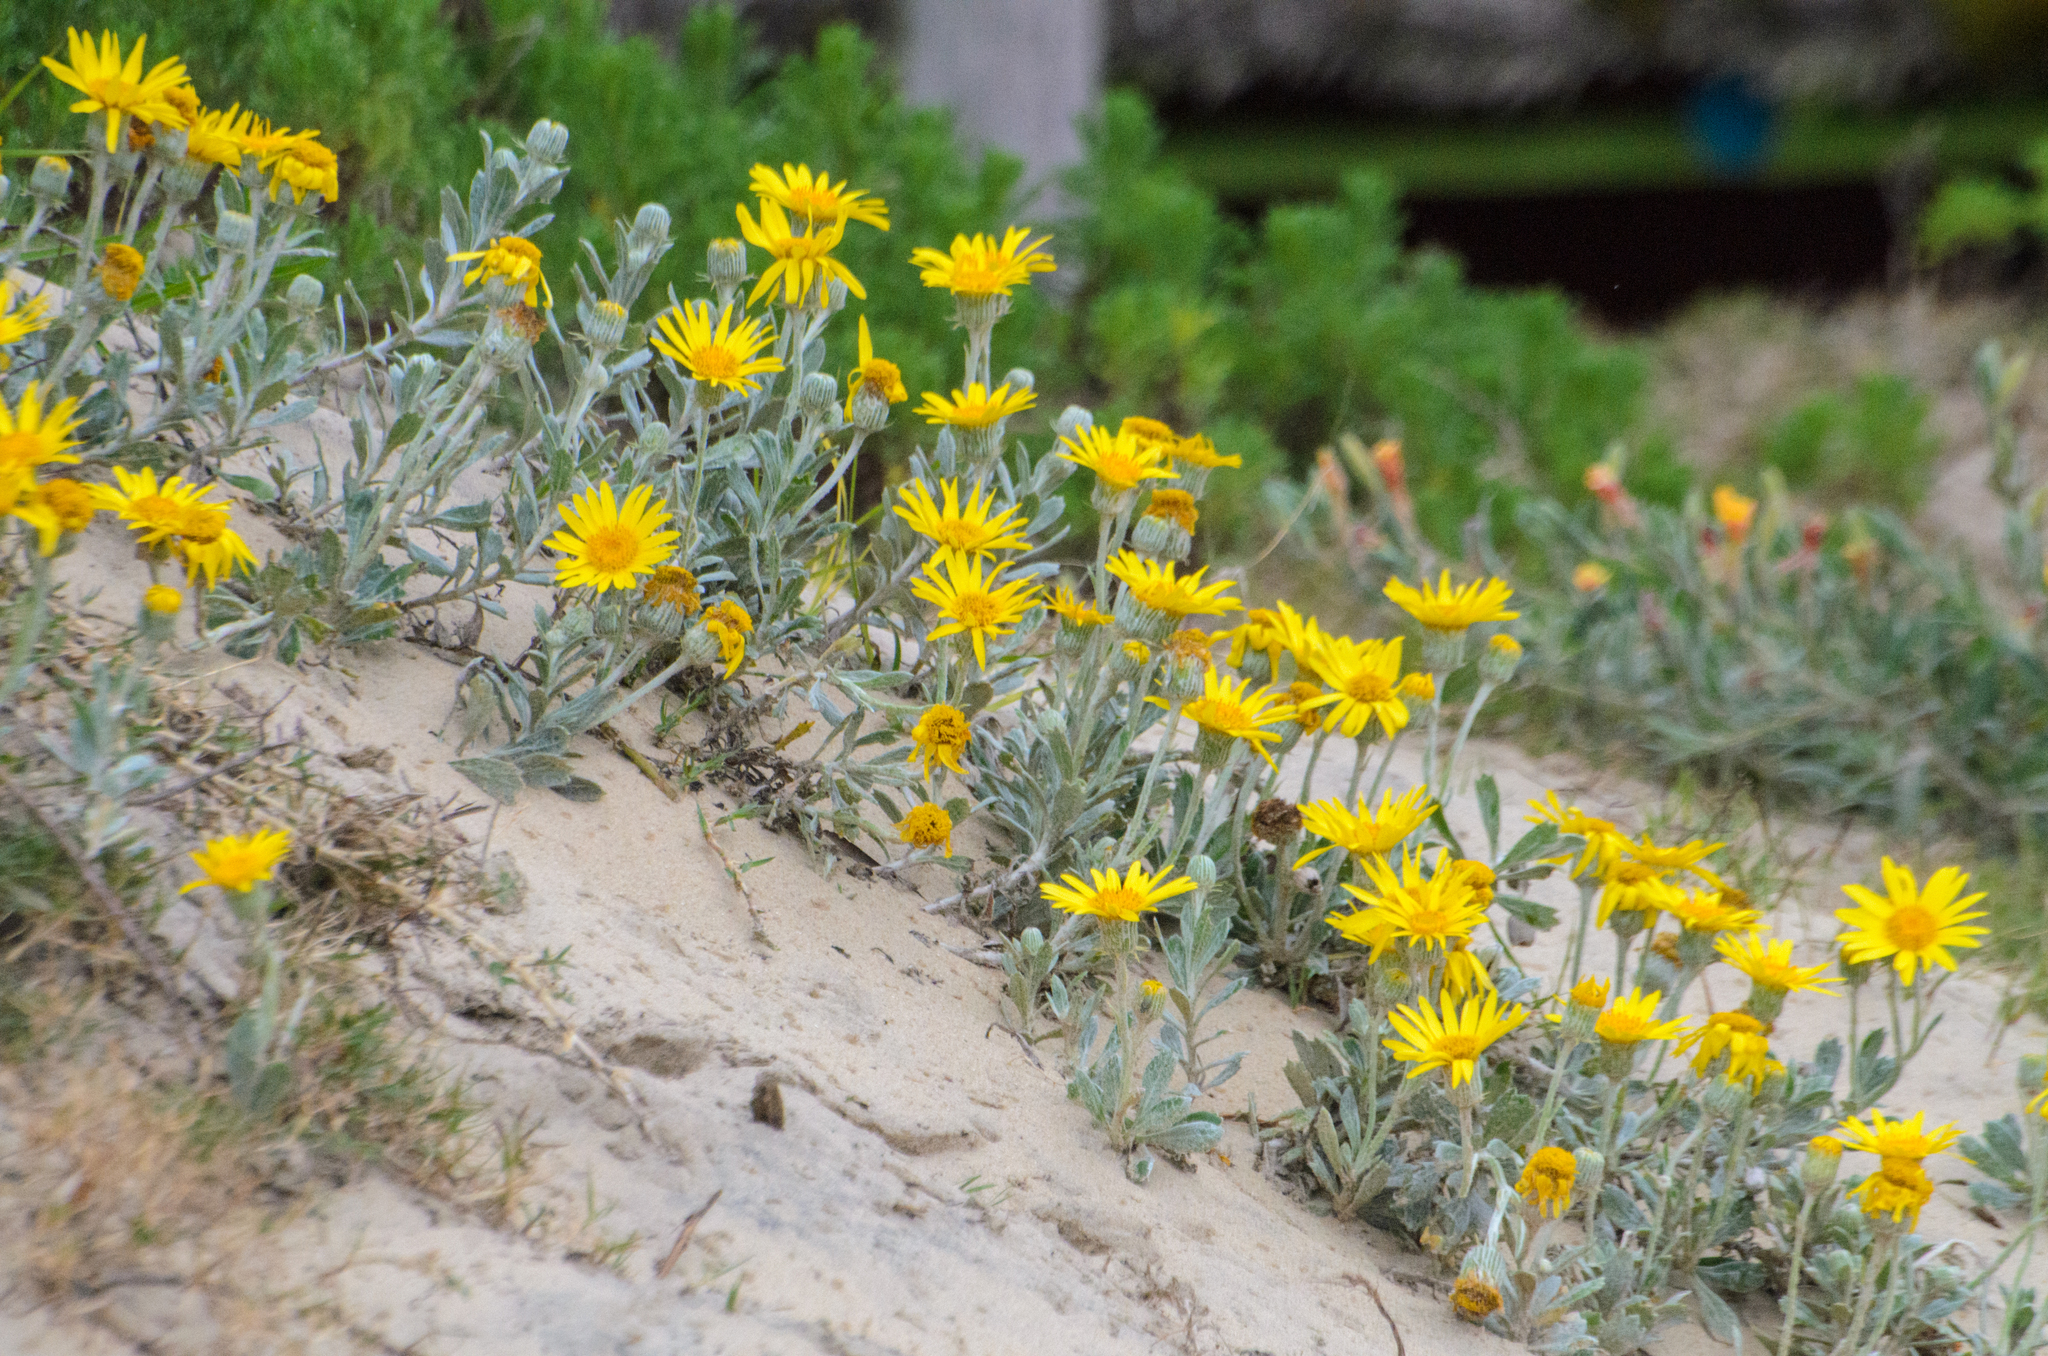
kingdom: Plantae
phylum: Tracheophyta
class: Magnoliopsida
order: Asterales
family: Asteraceae
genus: Senecio
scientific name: Senecio crassiflorus
